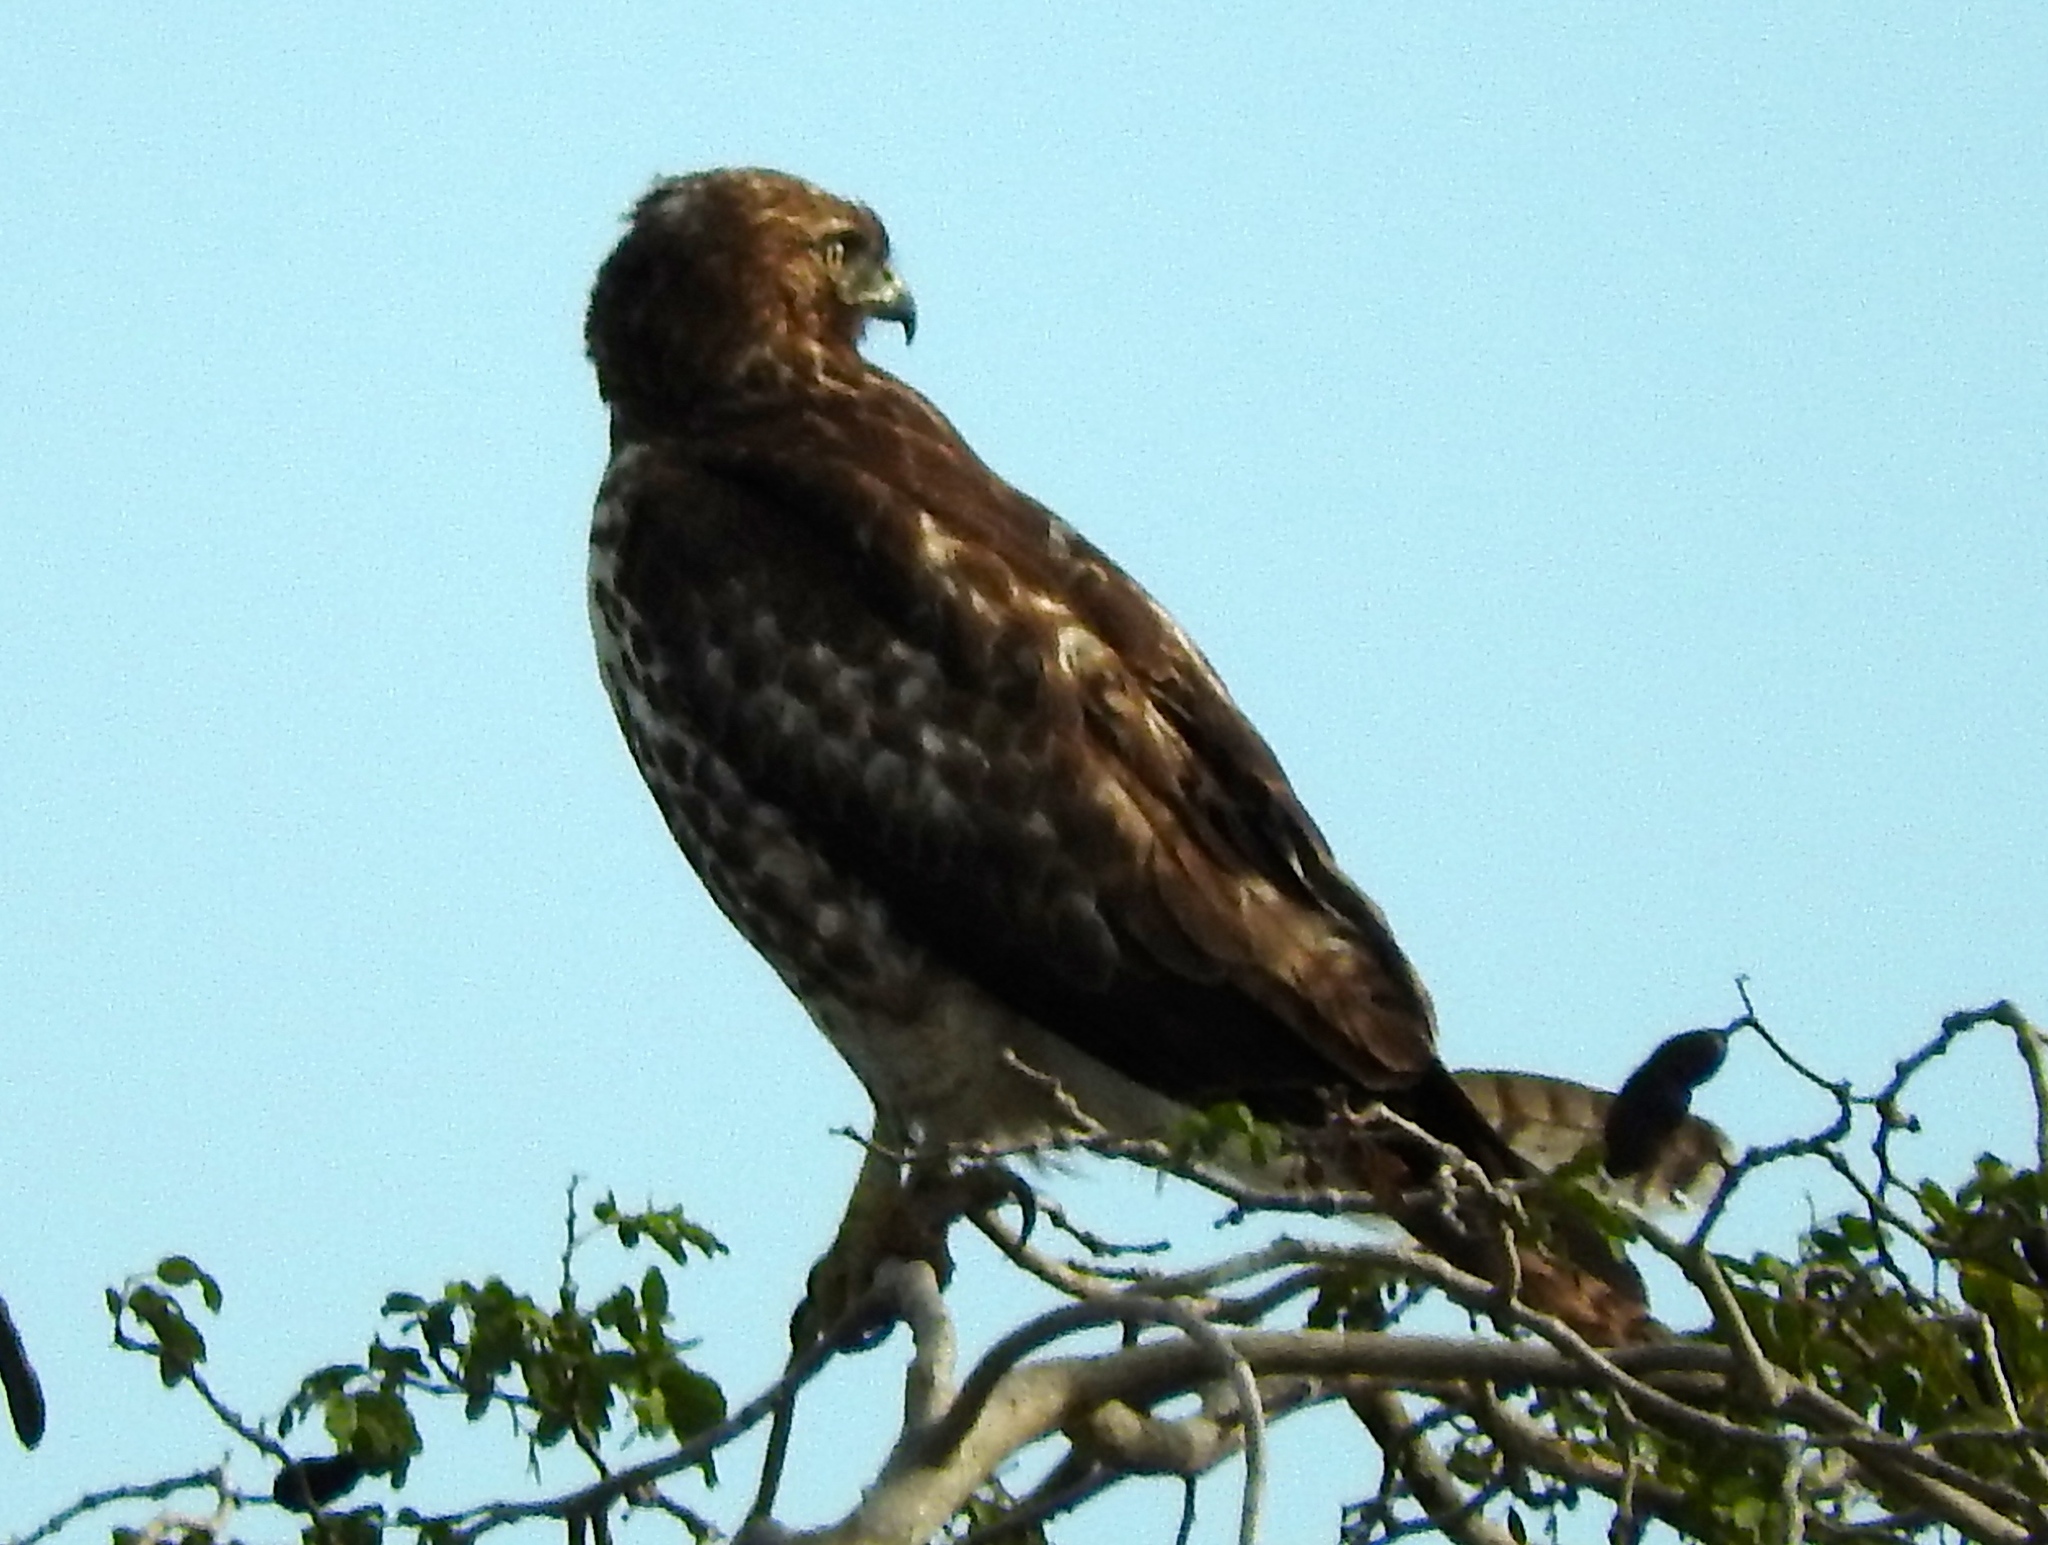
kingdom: Animalia
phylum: Chordata
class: Aves
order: Accipitriformes
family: Accipitridae
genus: Buteo
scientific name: Buteo jamaicensis
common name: Red-tailed hawk
